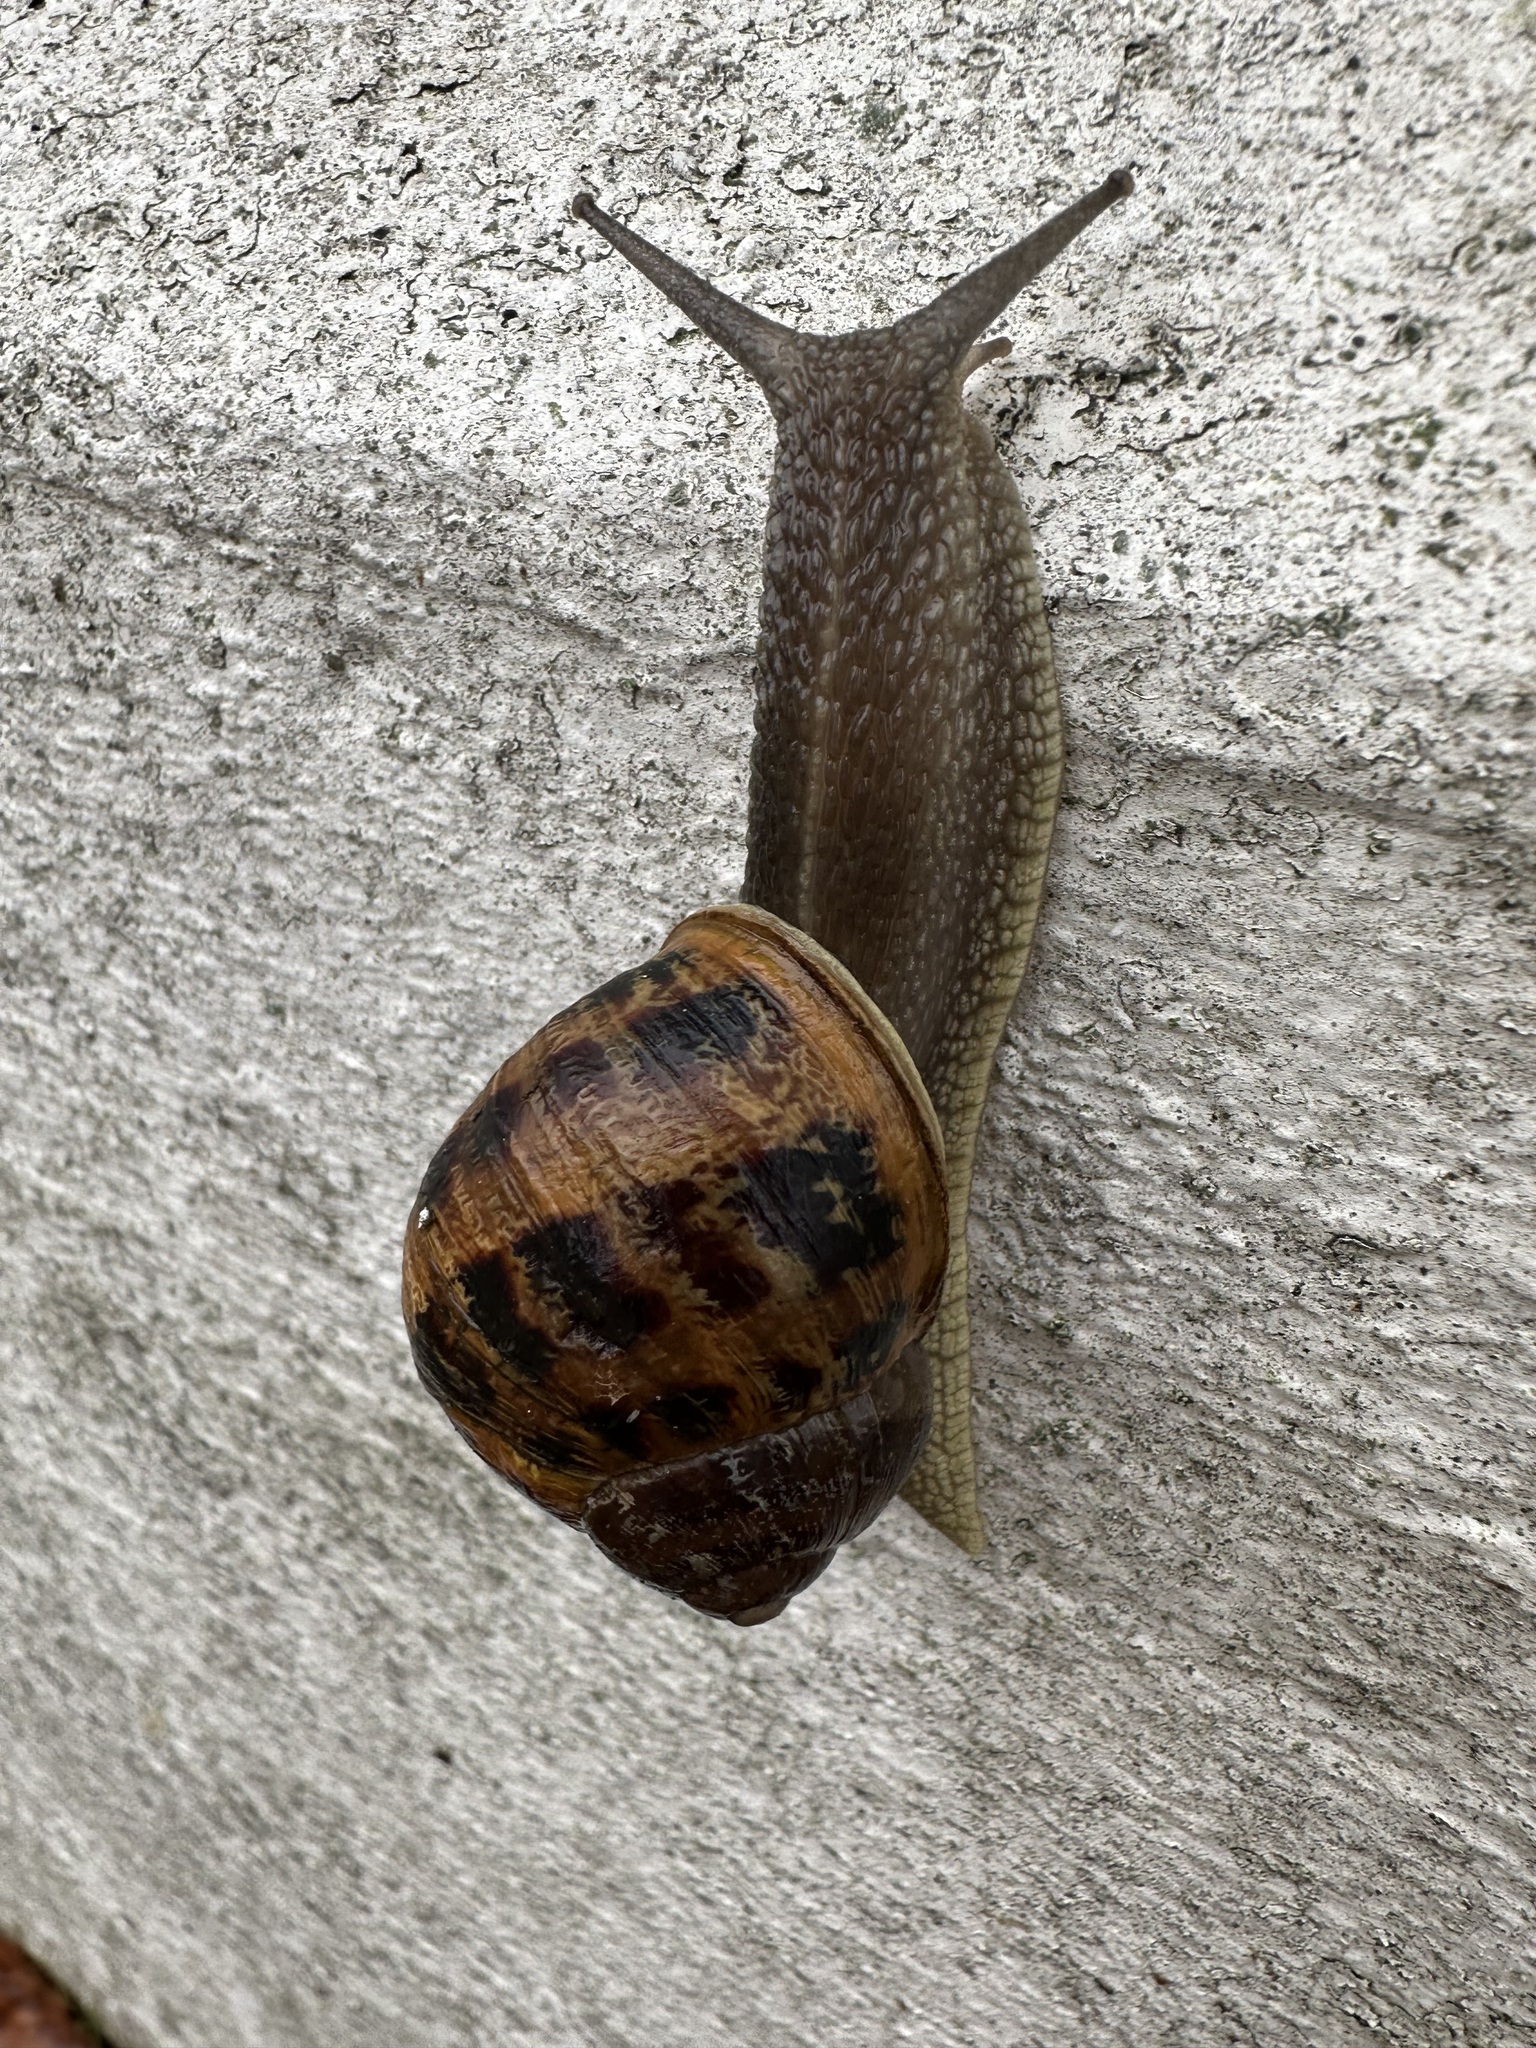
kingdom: Animalia
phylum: Mollusca
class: Gastropoda
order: Stylommatophora
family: Helicidae
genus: Cornu
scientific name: Cornu aspersum
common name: Brown garden snail
